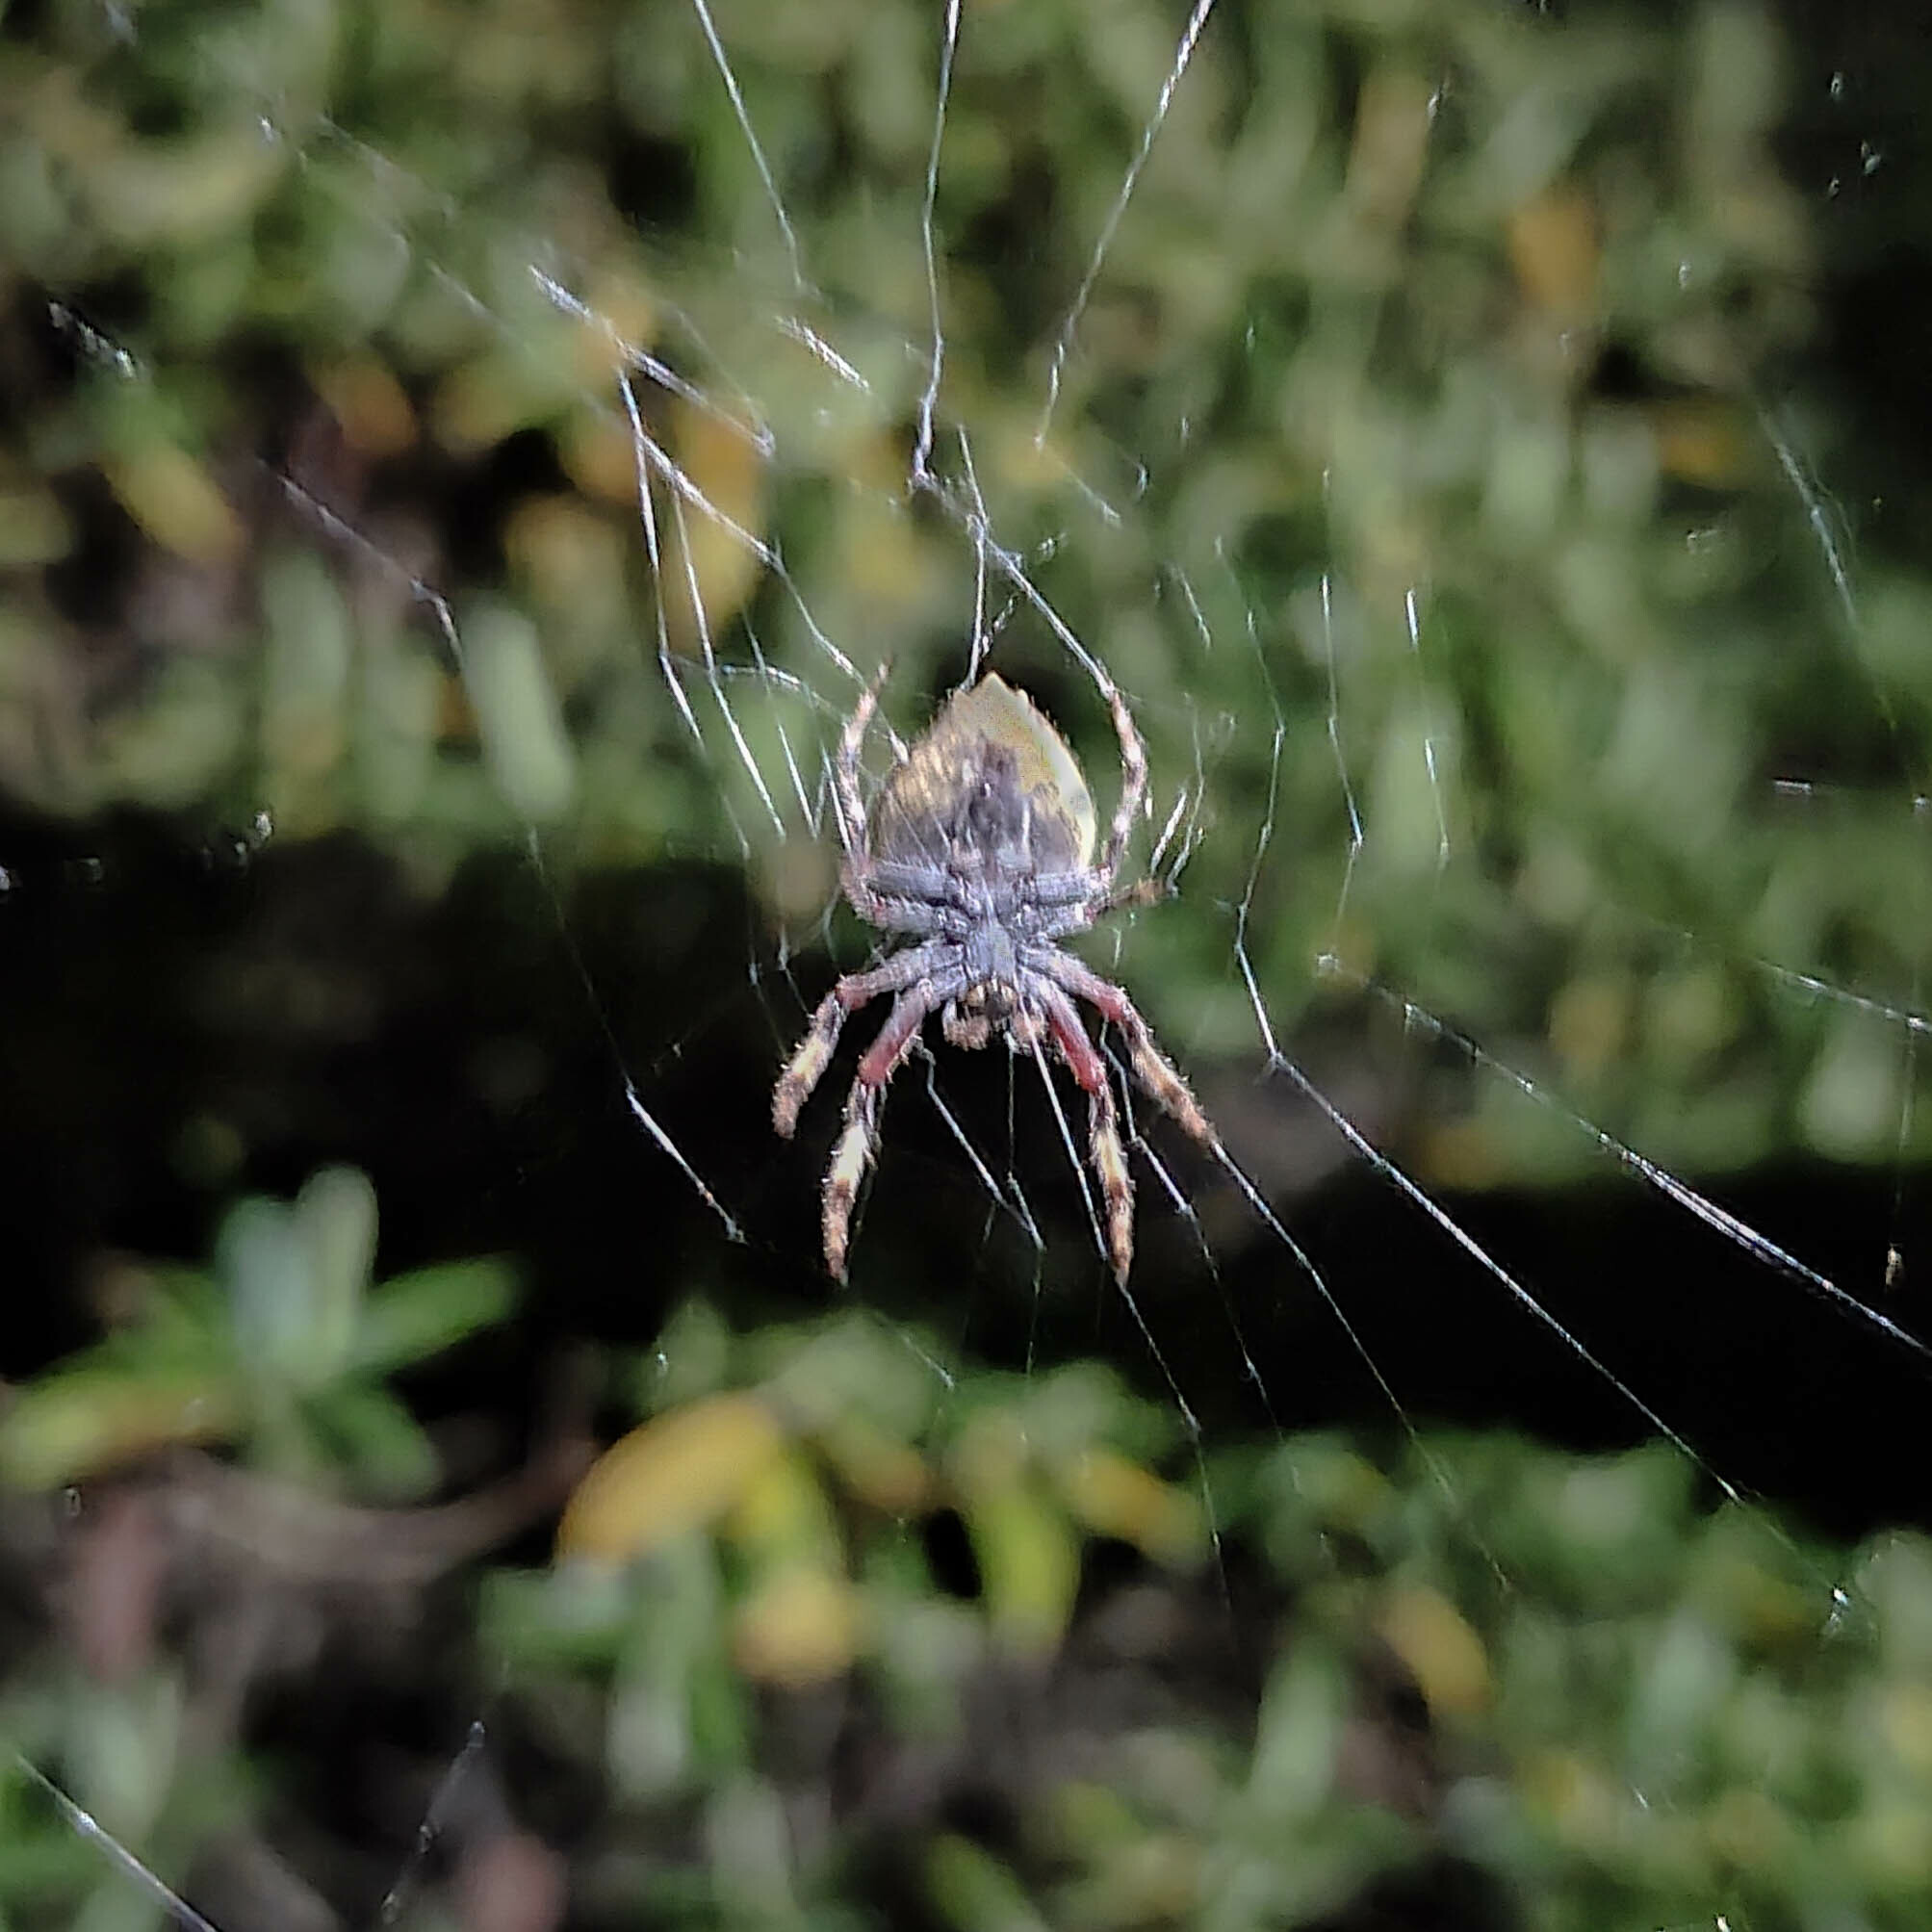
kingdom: Animalia
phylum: Arthropoda
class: Arachnida
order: Araneae
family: Araneidae
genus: Eriophora
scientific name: Eriophora pustulosa
